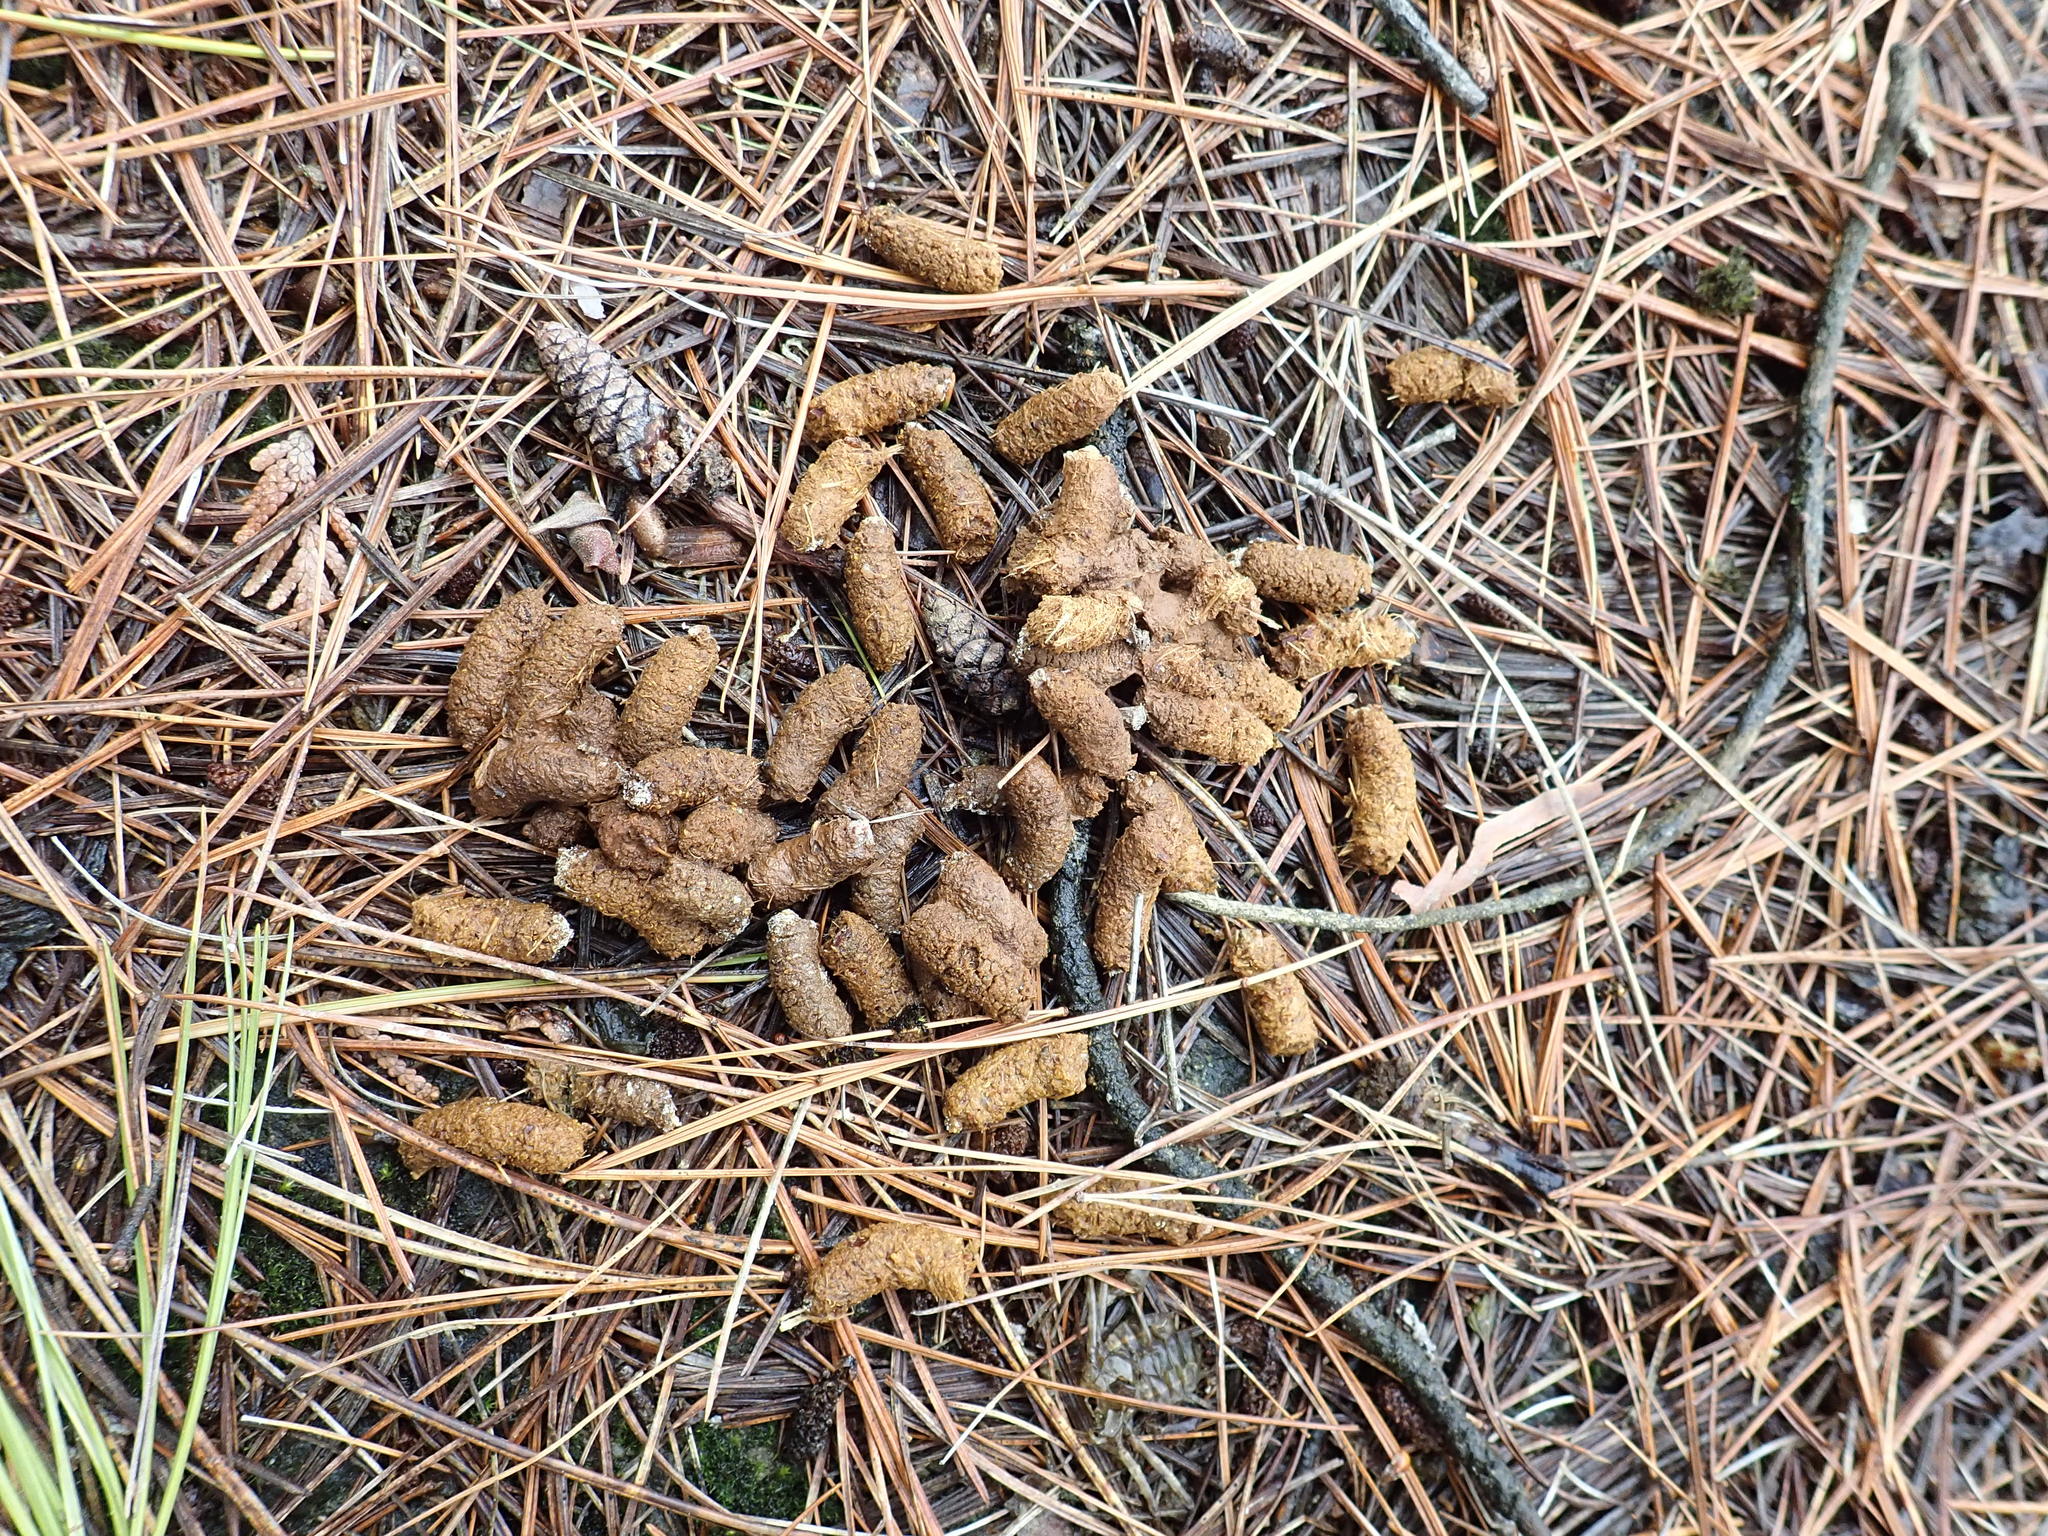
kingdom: Animalia
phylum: Chordata
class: Aves
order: Galliformes
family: Phasianidae
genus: Bonasa
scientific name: Bonasa umbellus
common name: Ruffed grouse
